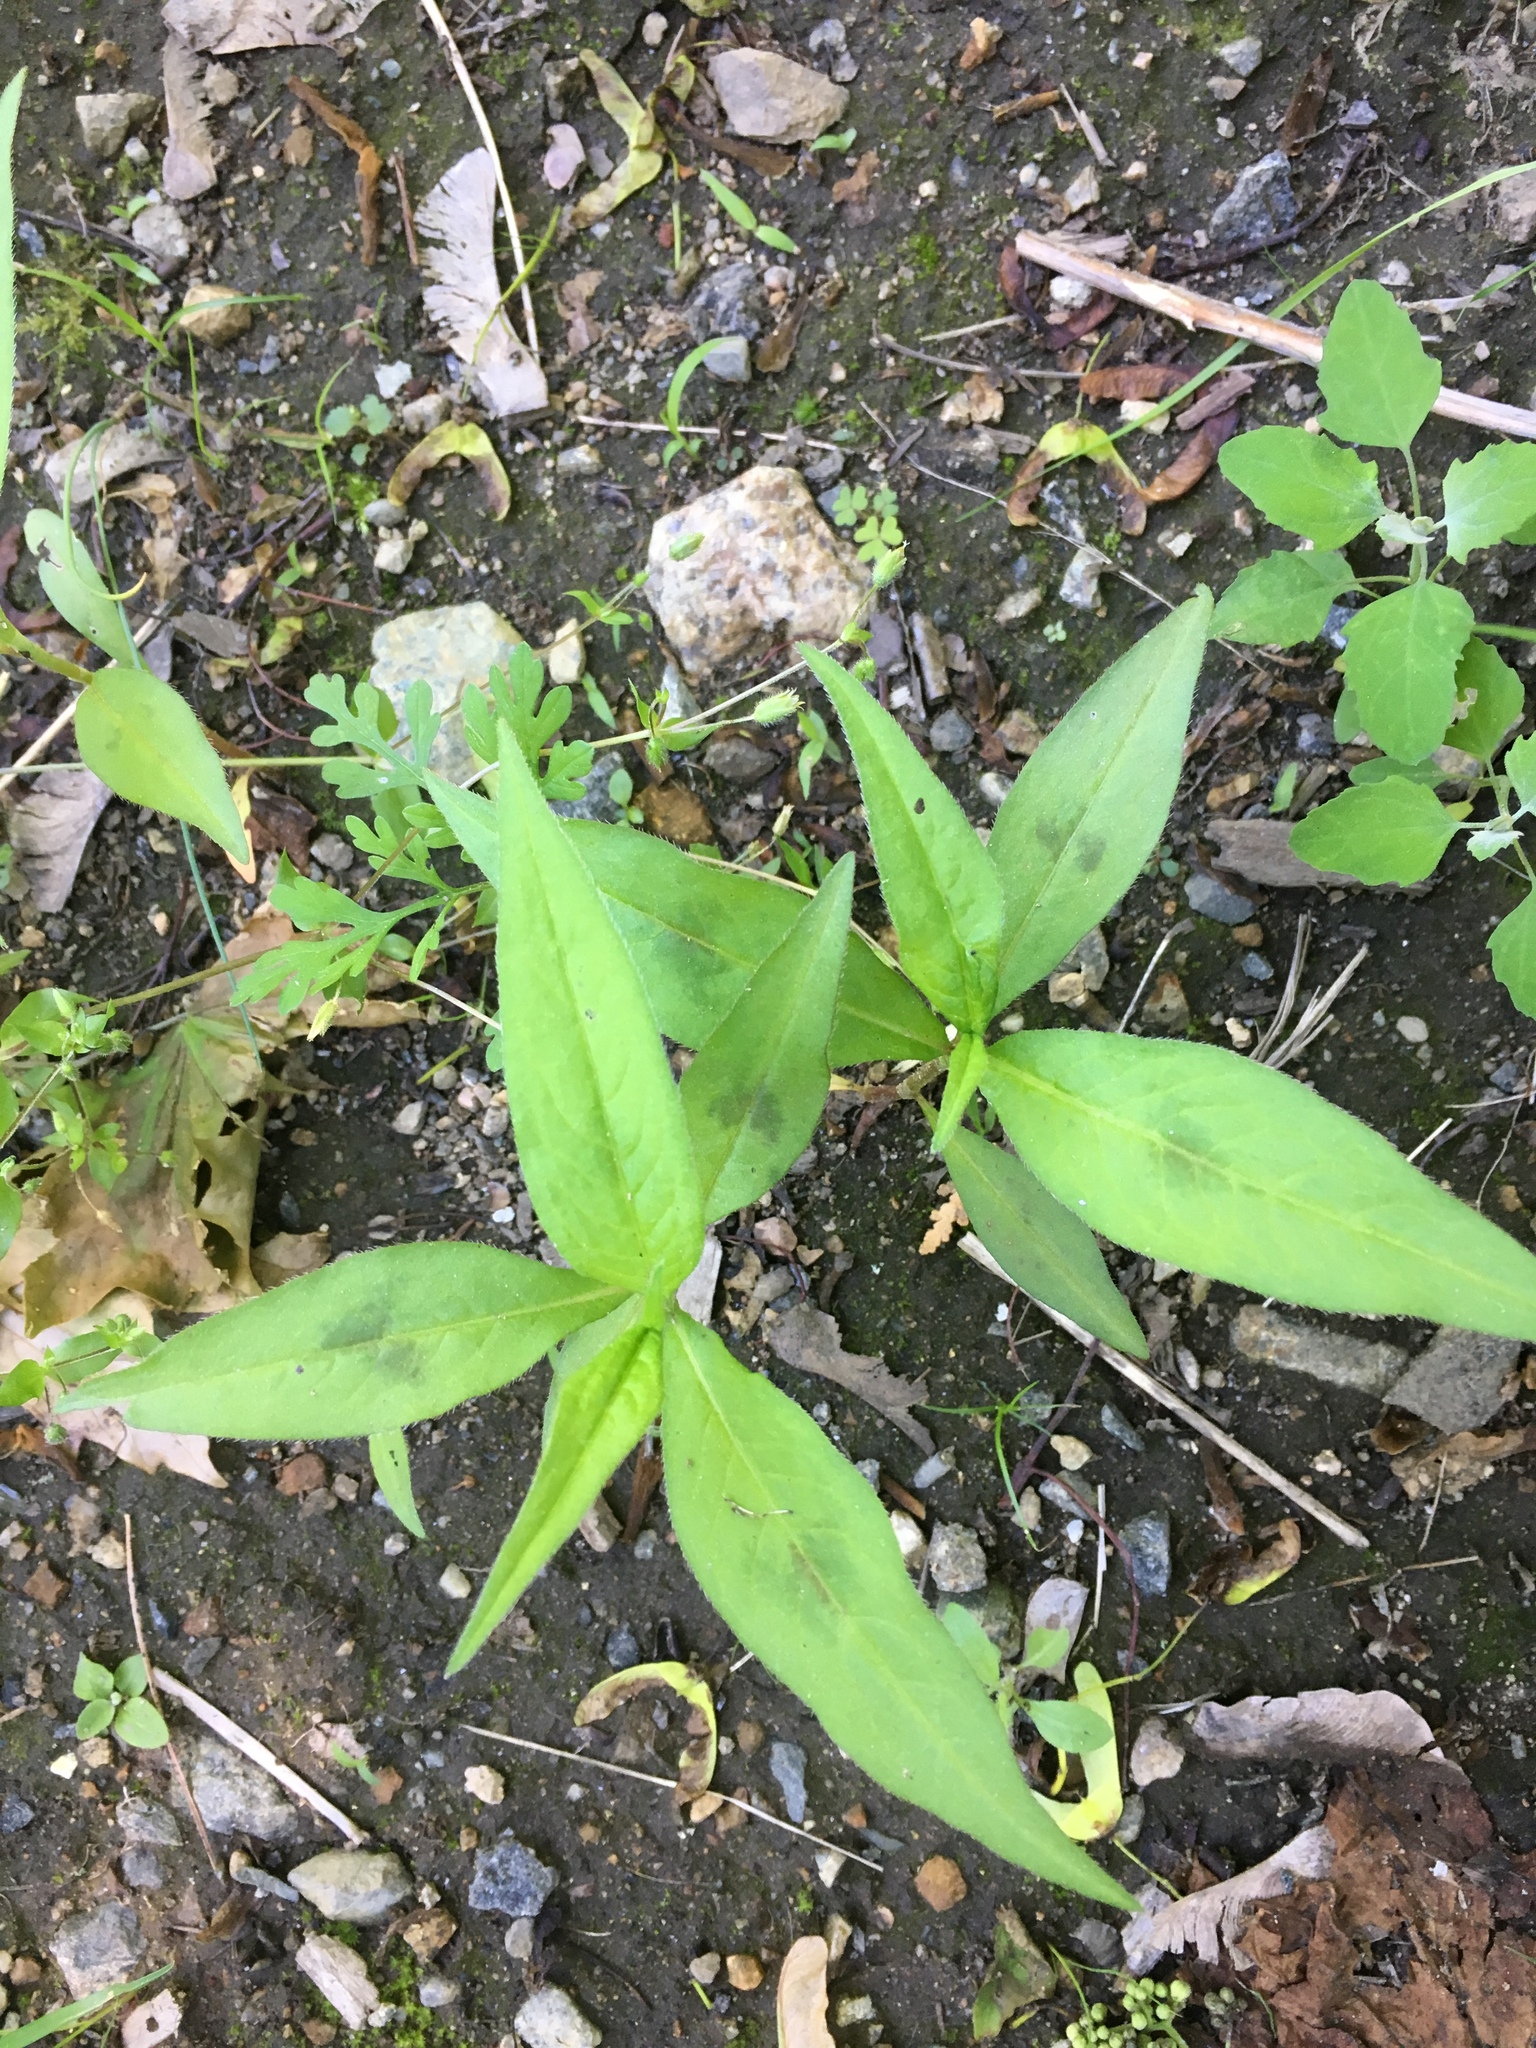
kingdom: Plantae
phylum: Tracheophyta
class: Magnoliopsida
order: Caryophyllales
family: Polygonaceae
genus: Persicaria
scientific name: Persicaria maculosa
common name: Redshank
